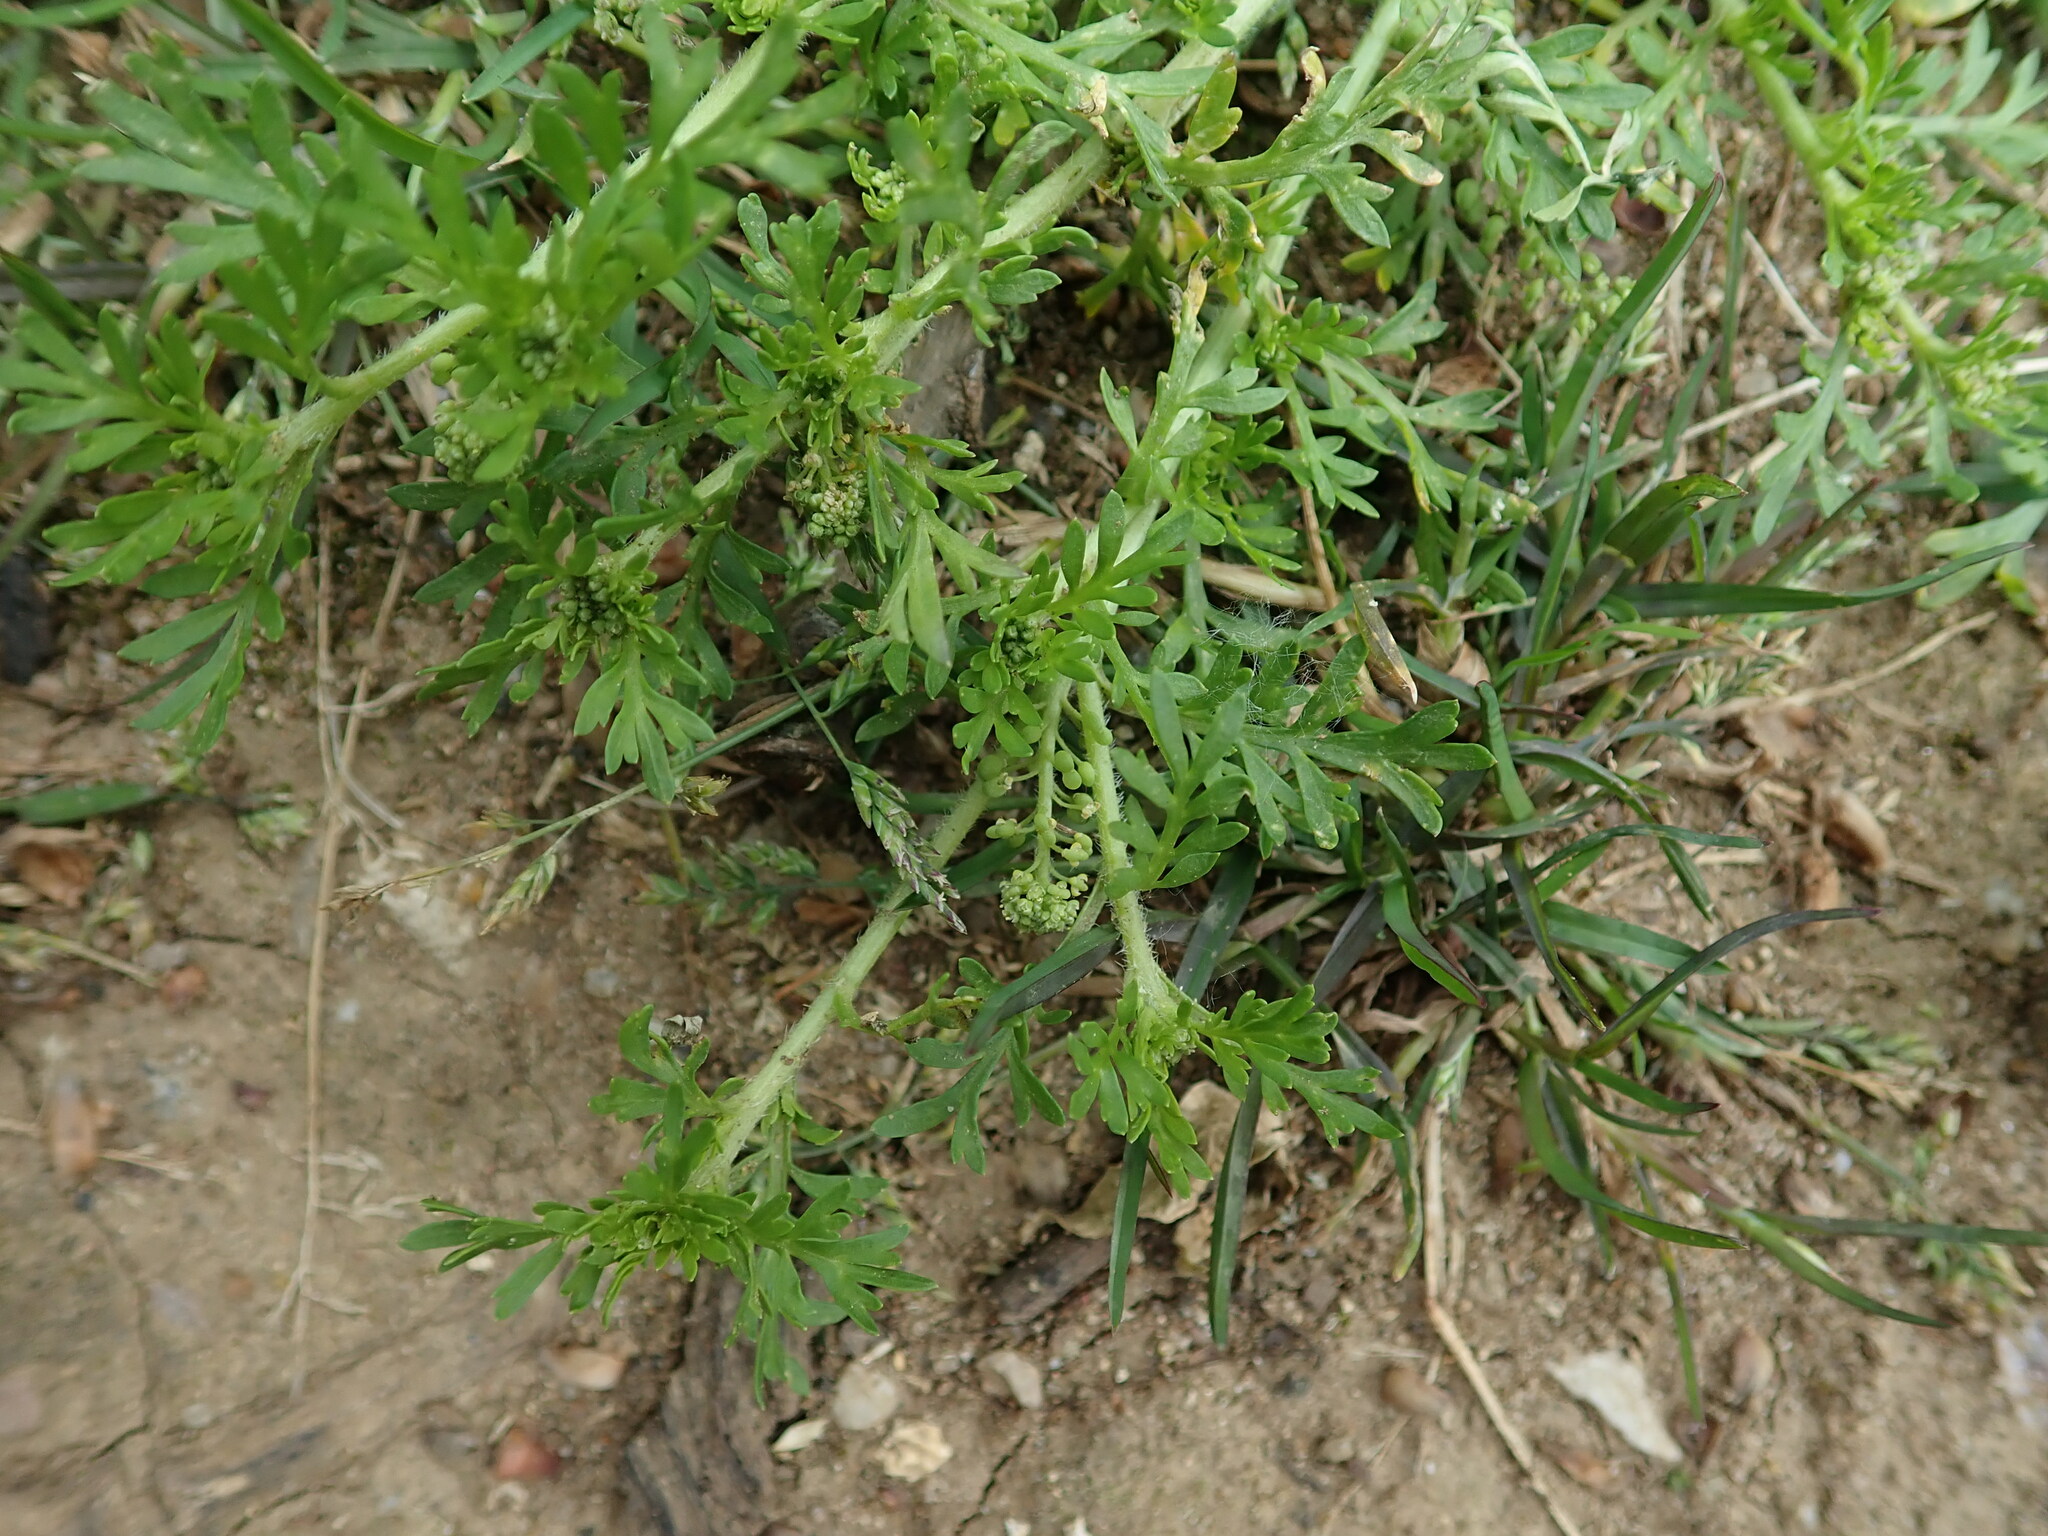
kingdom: Plantae
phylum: Tracheophyta
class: Magnoliopsida
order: Brassicales
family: Brassicaceae
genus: Lepidium
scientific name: Lepidium didymum
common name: Lesser swinecress
